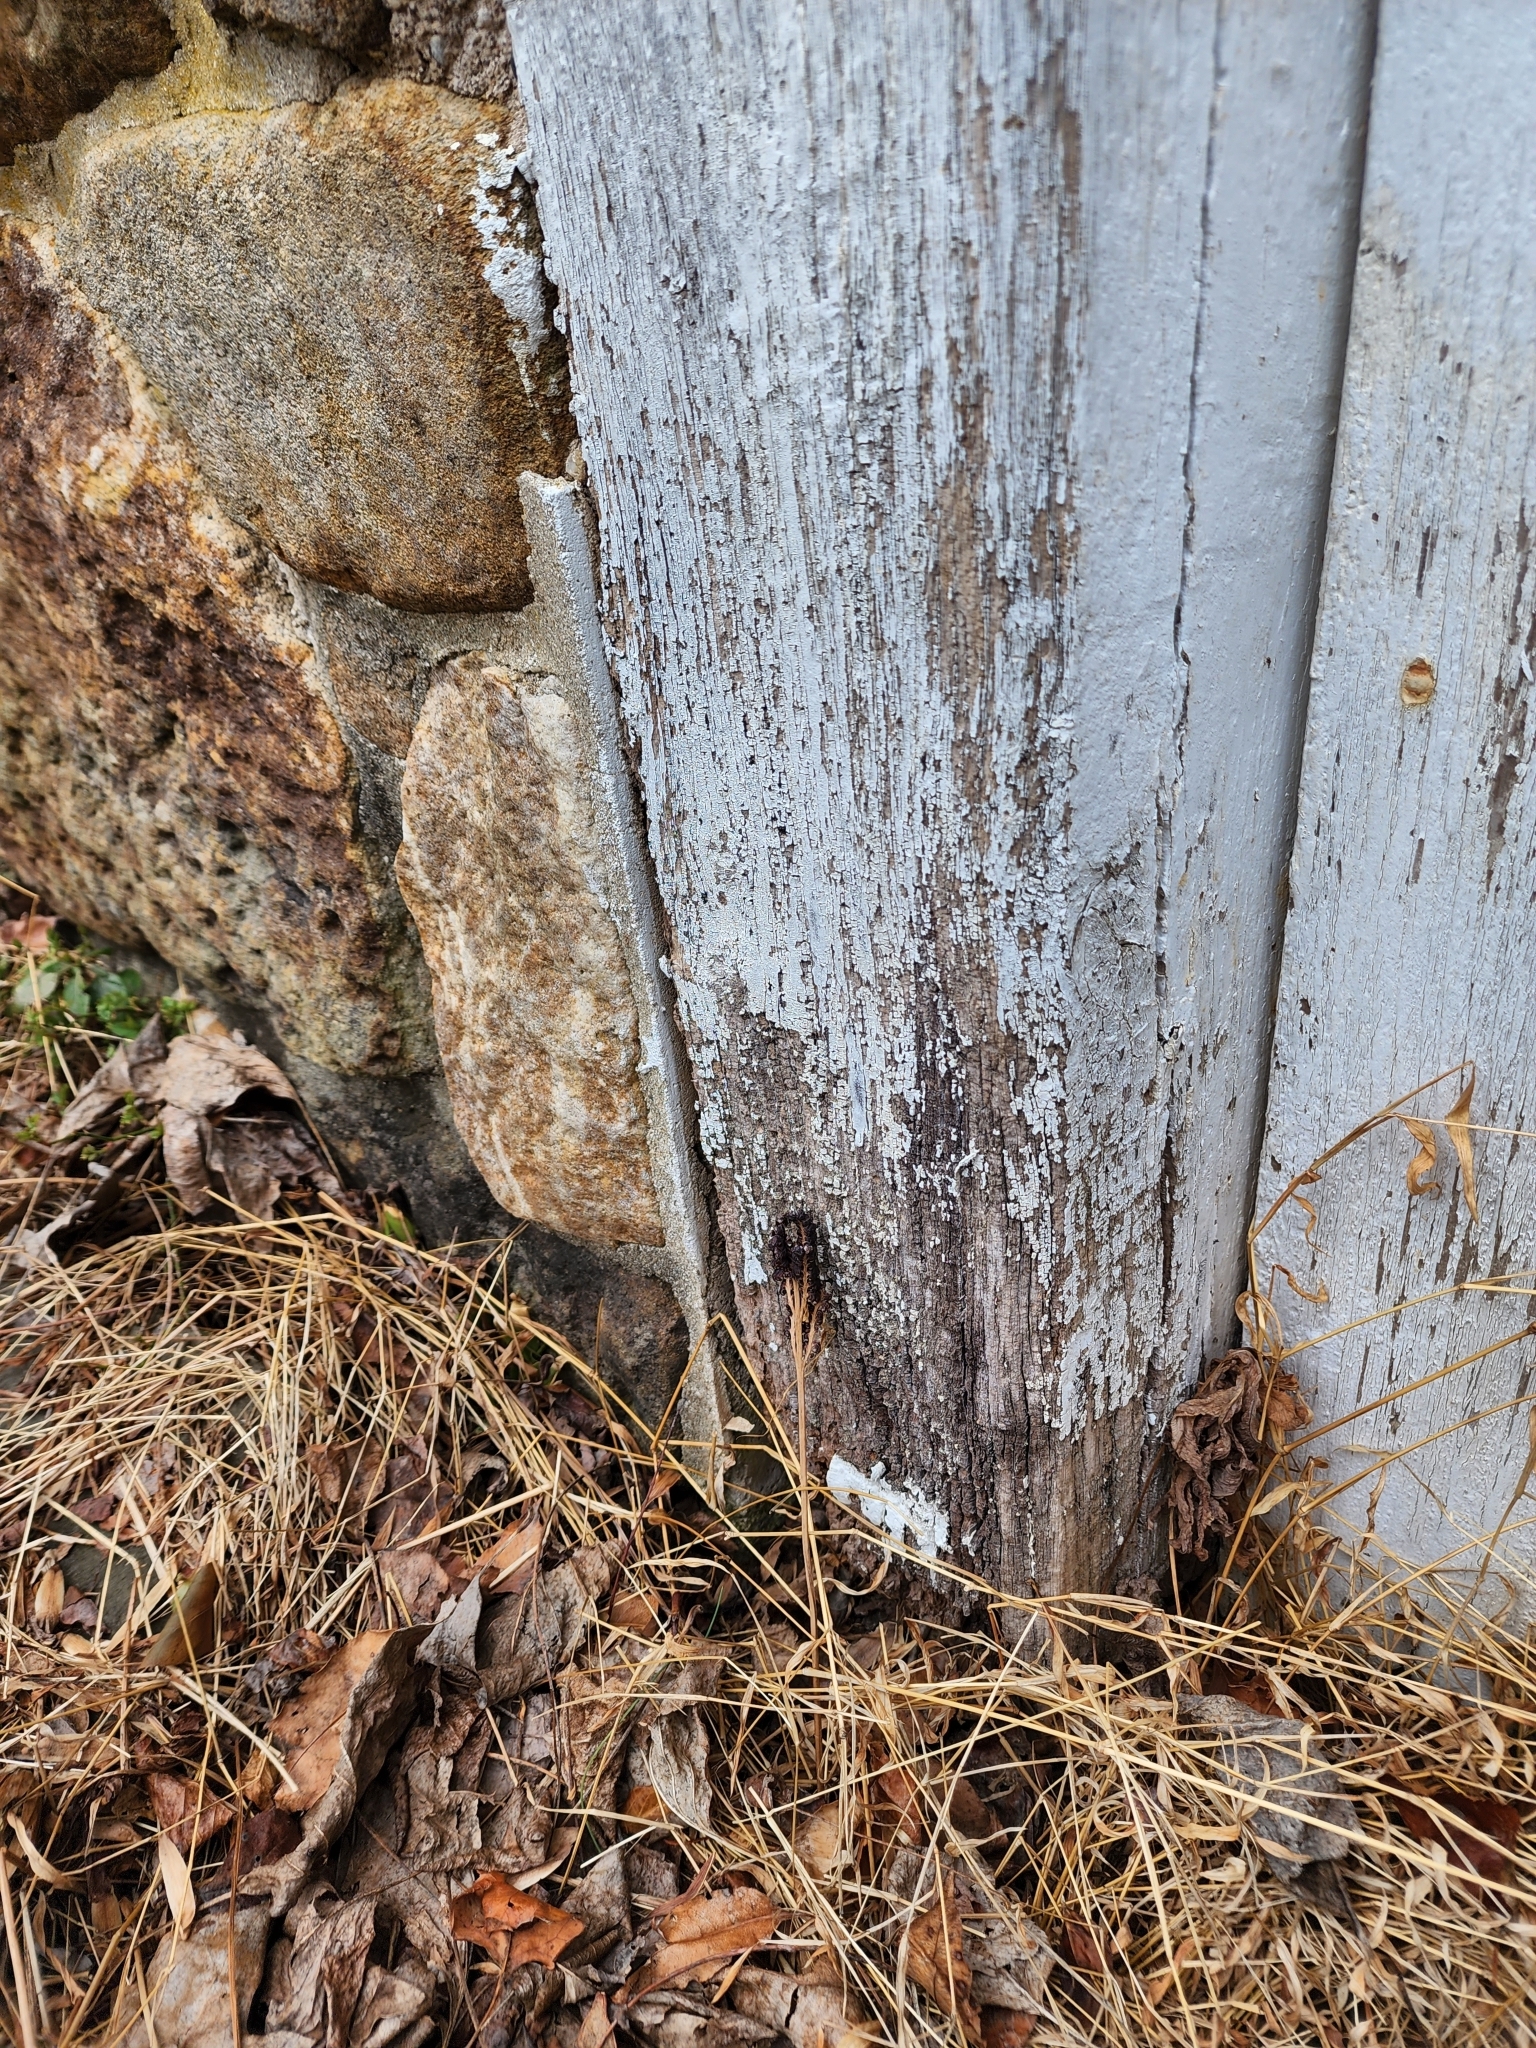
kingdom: Plantae
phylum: Tracheophyta
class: Polypodiopsida
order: Polypodiales
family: Onocleaceae
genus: Onoclea
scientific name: Onoclea sensibilis
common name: Sensitive fern
